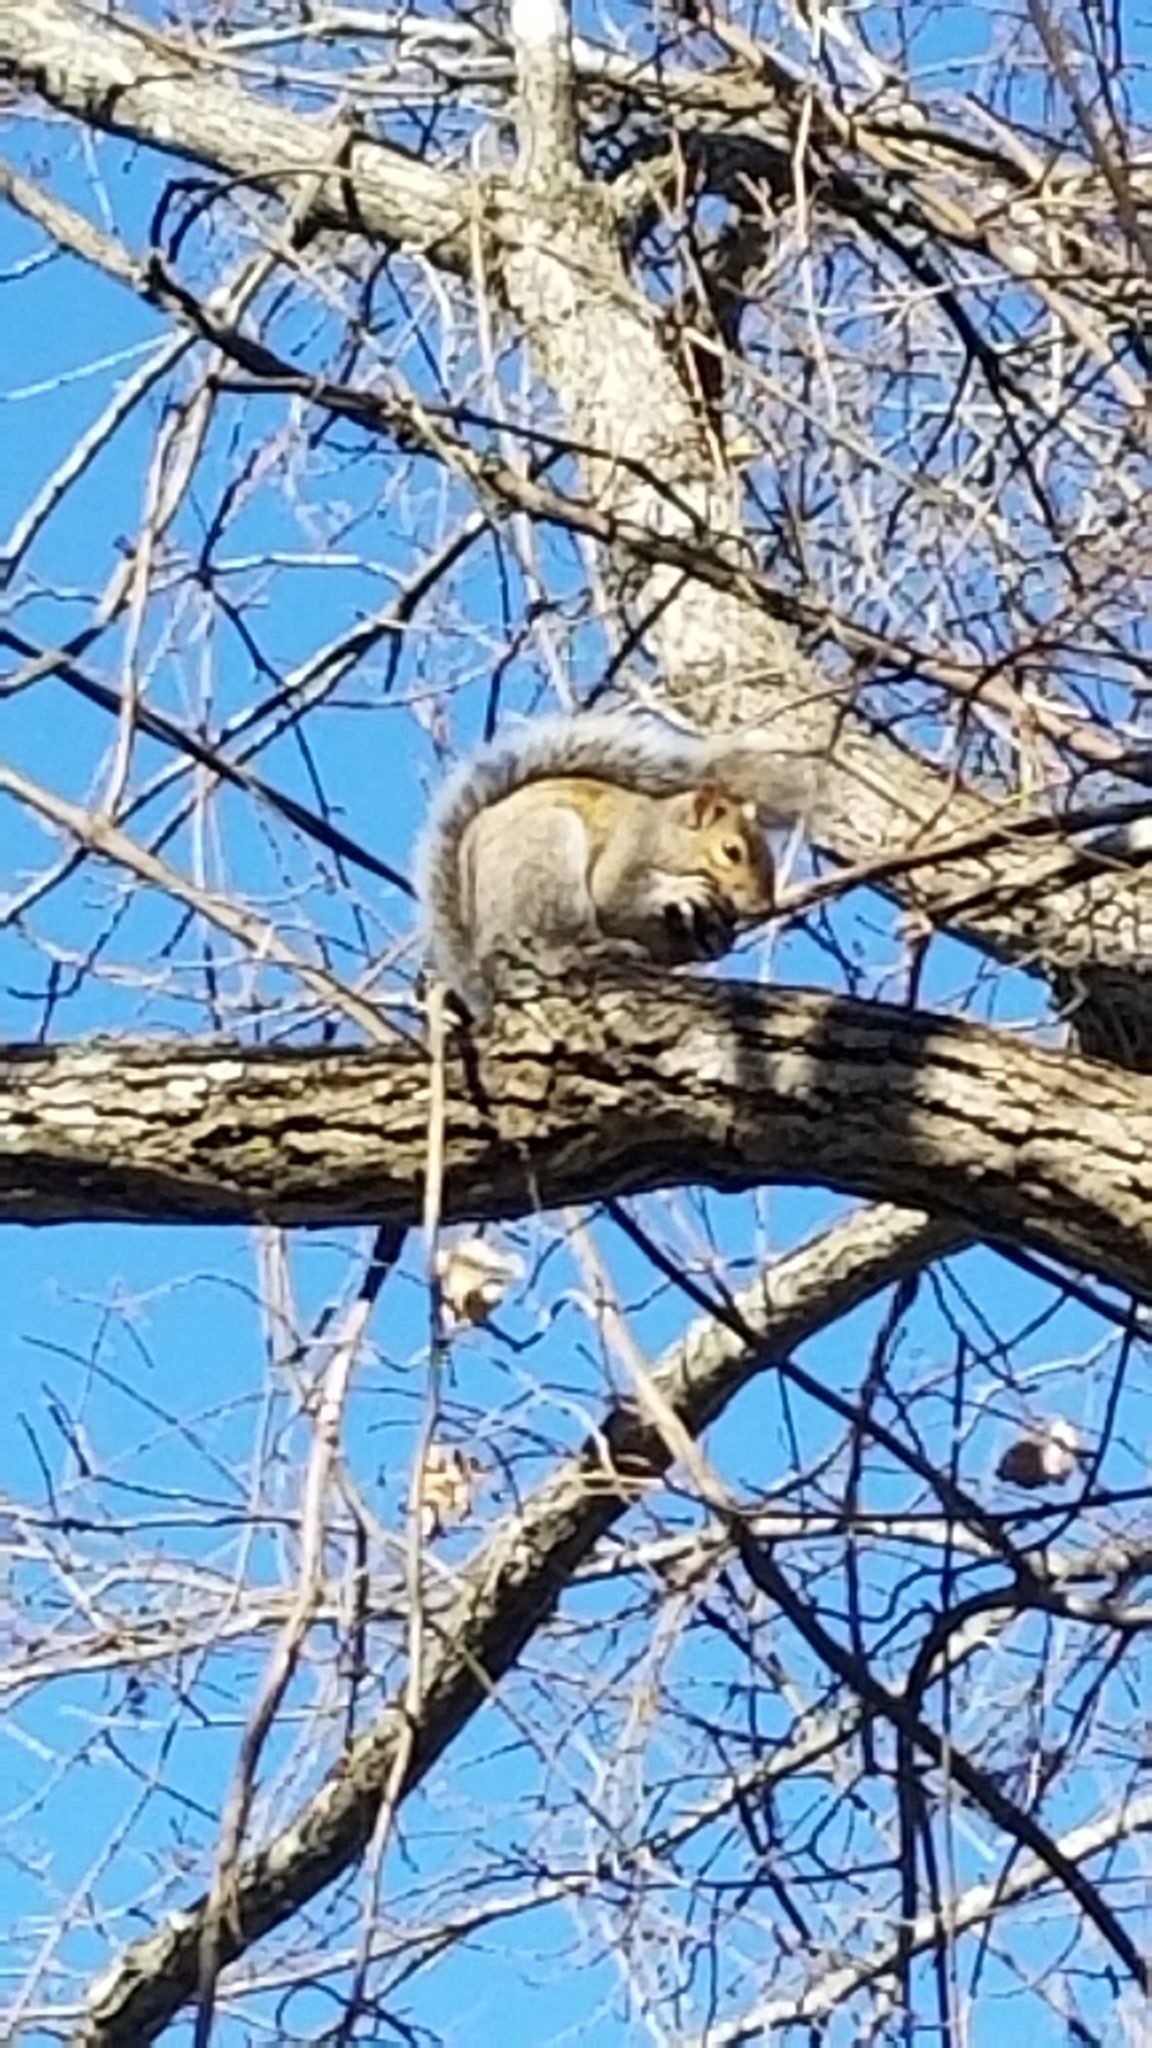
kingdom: Animalia
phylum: Chordata
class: Mammalia
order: Rodentia
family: Sciuridae
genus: Sciurus
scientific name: Sciurus carolinensis
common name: Eastern gray squirrel
